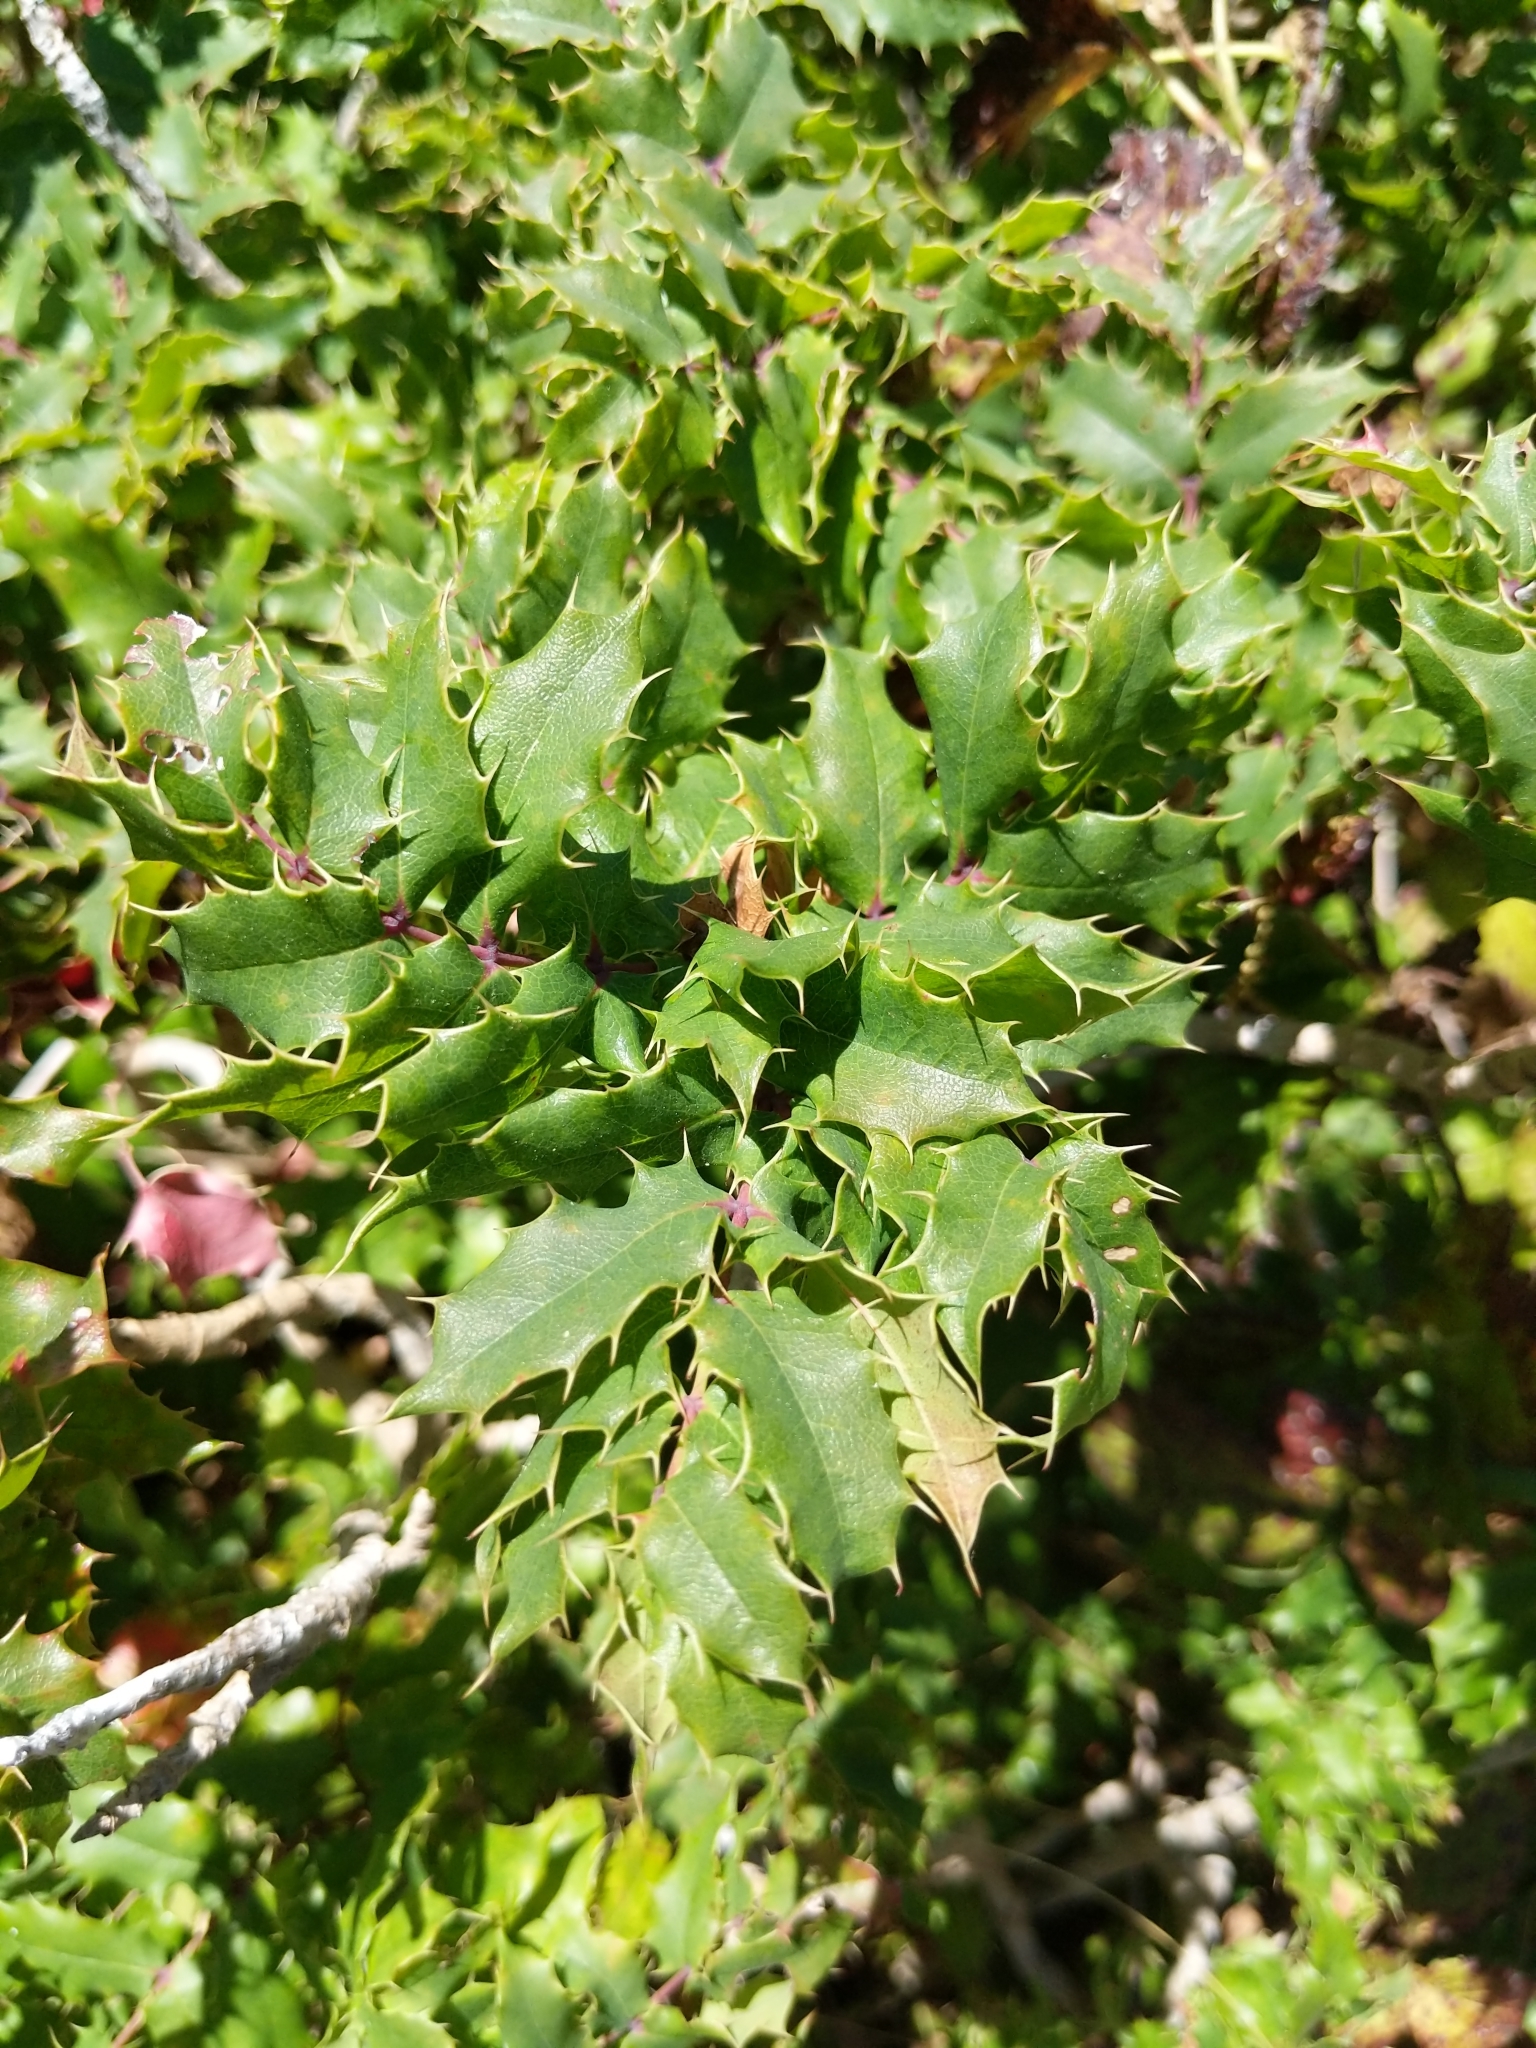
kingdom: Plantae
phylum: Tracheophyta
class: Magnoliopsida
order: Ranunculales
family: Berberidaceae
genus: Mahonia
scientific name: Mahonia
